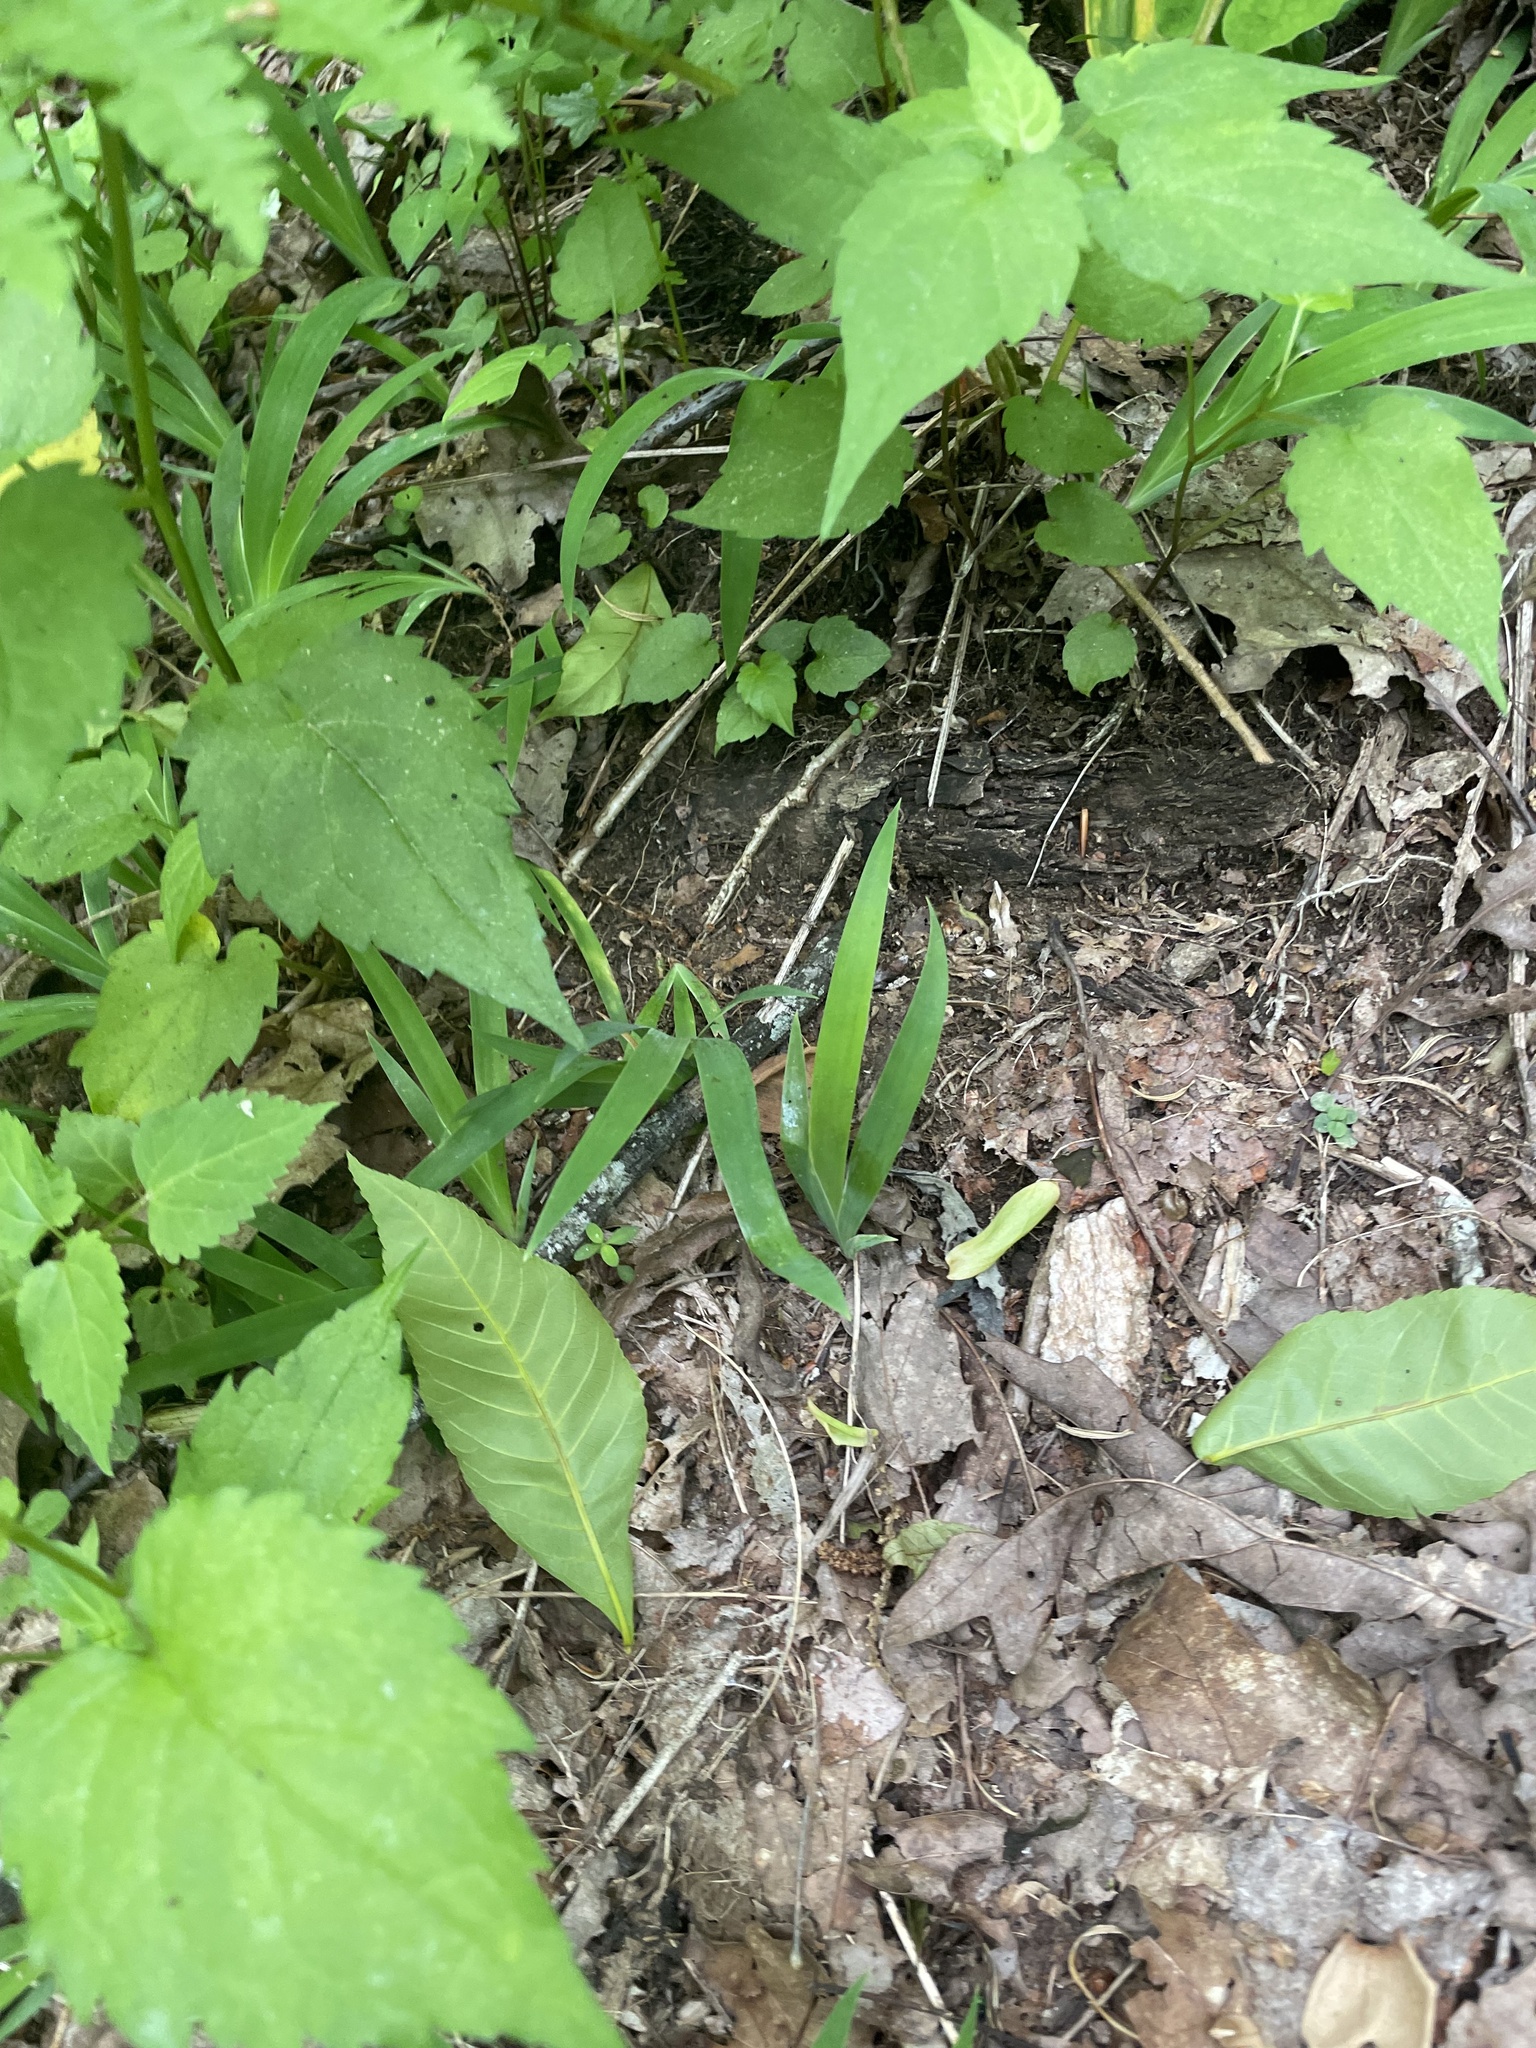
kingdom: Plantae
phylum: Tracheophyta
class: Liliopsida
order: Asparagales
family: Iridaceae
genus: Iris
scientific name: Iris cristata
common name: Crested iris
